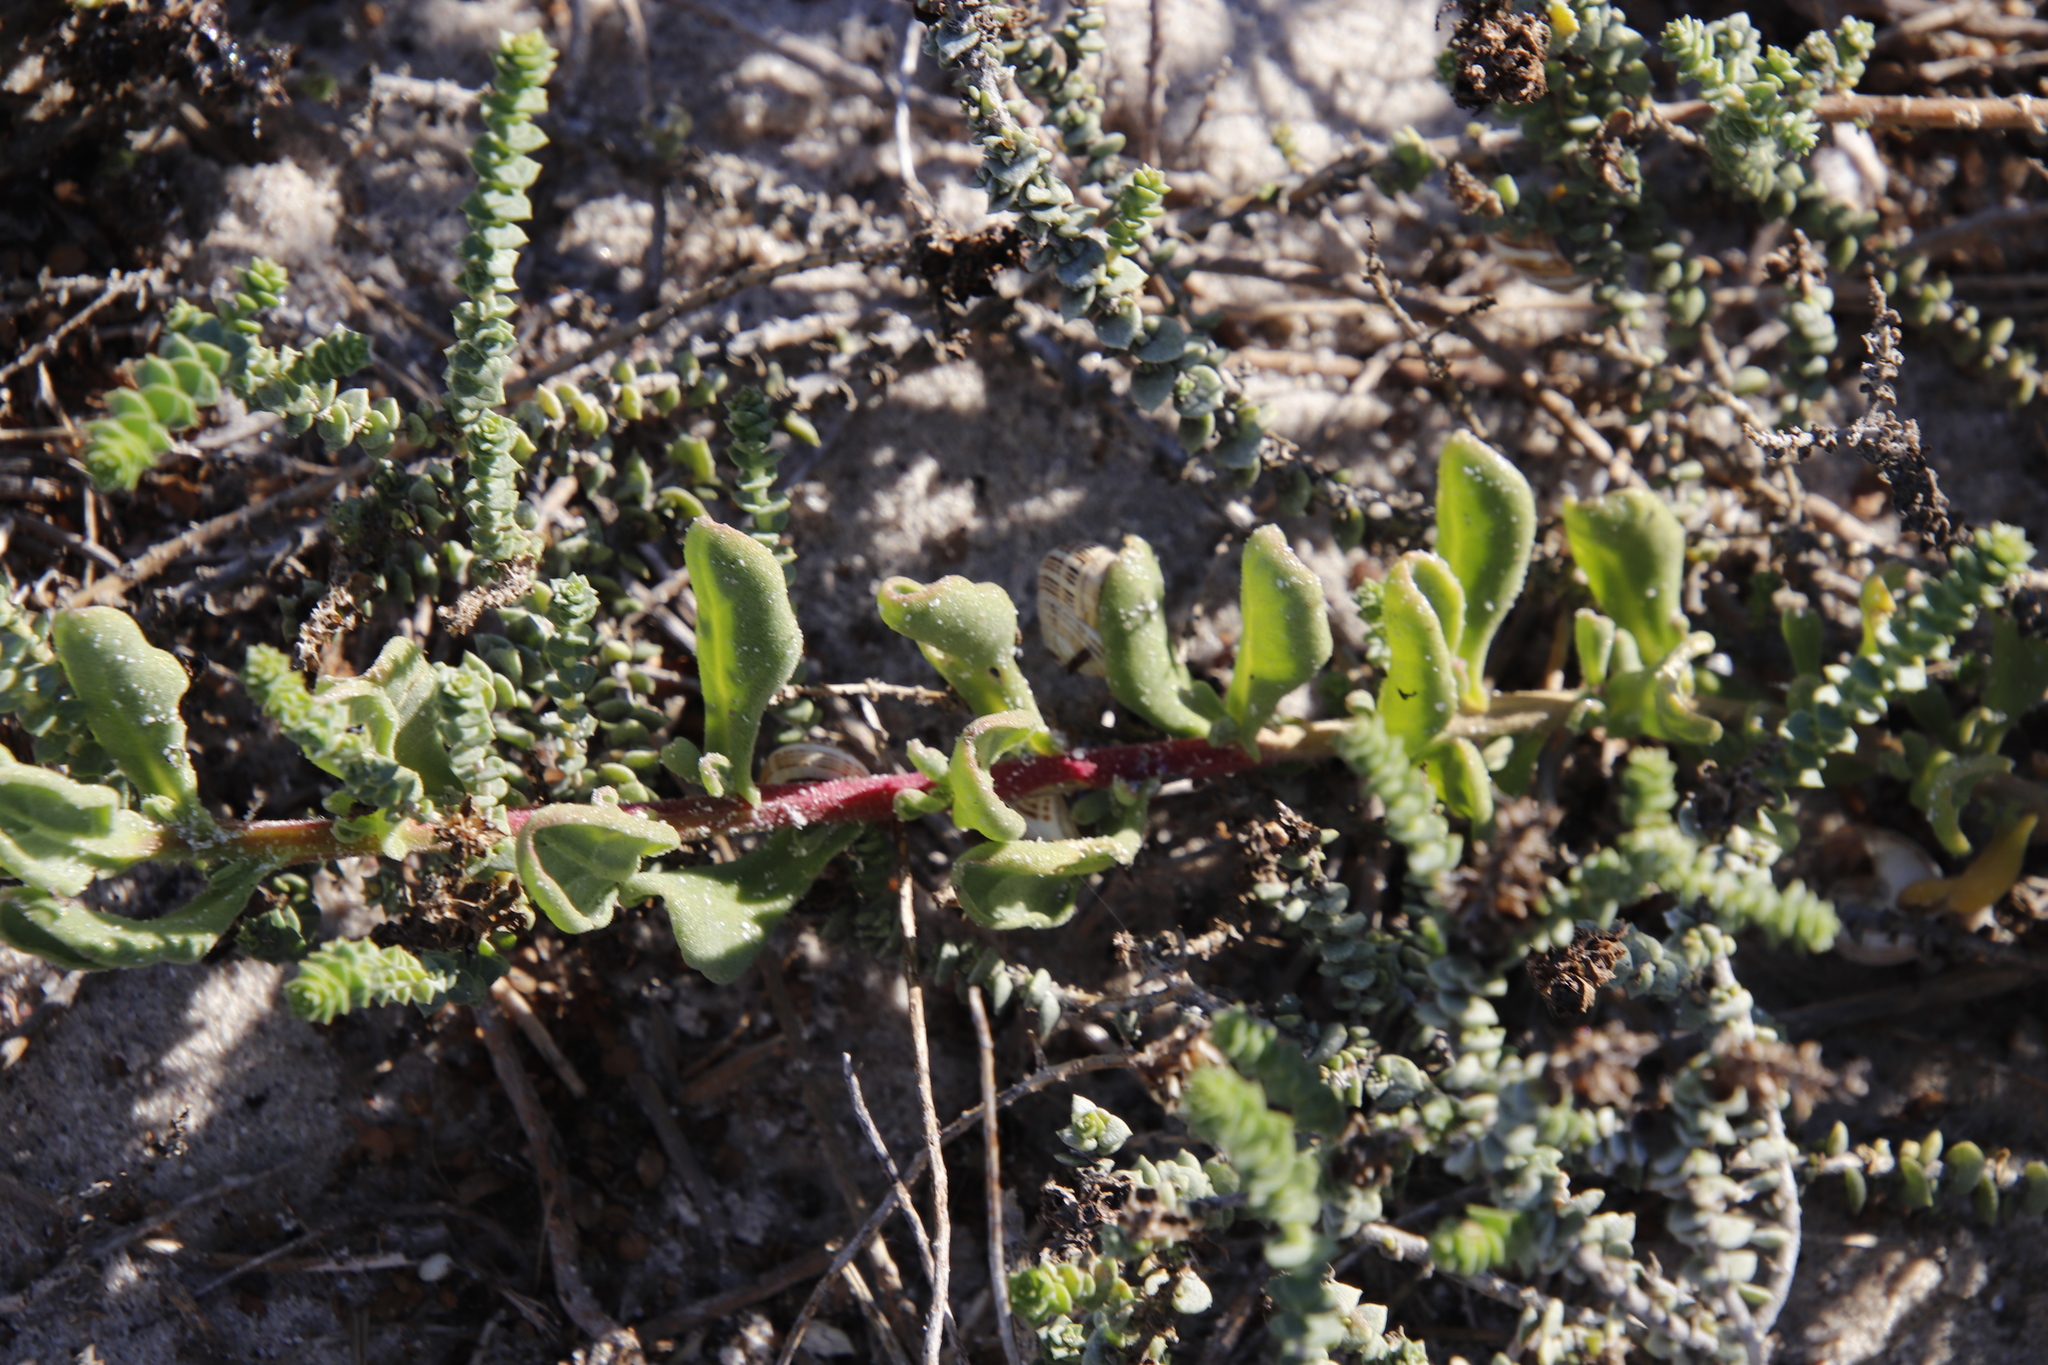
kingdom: Plantae
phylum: Tracheophyta
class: Magnoliopsida
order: Caryophyllales
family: Aizoaceae
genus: Tetragonia
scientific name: Tetragonia decumbens
